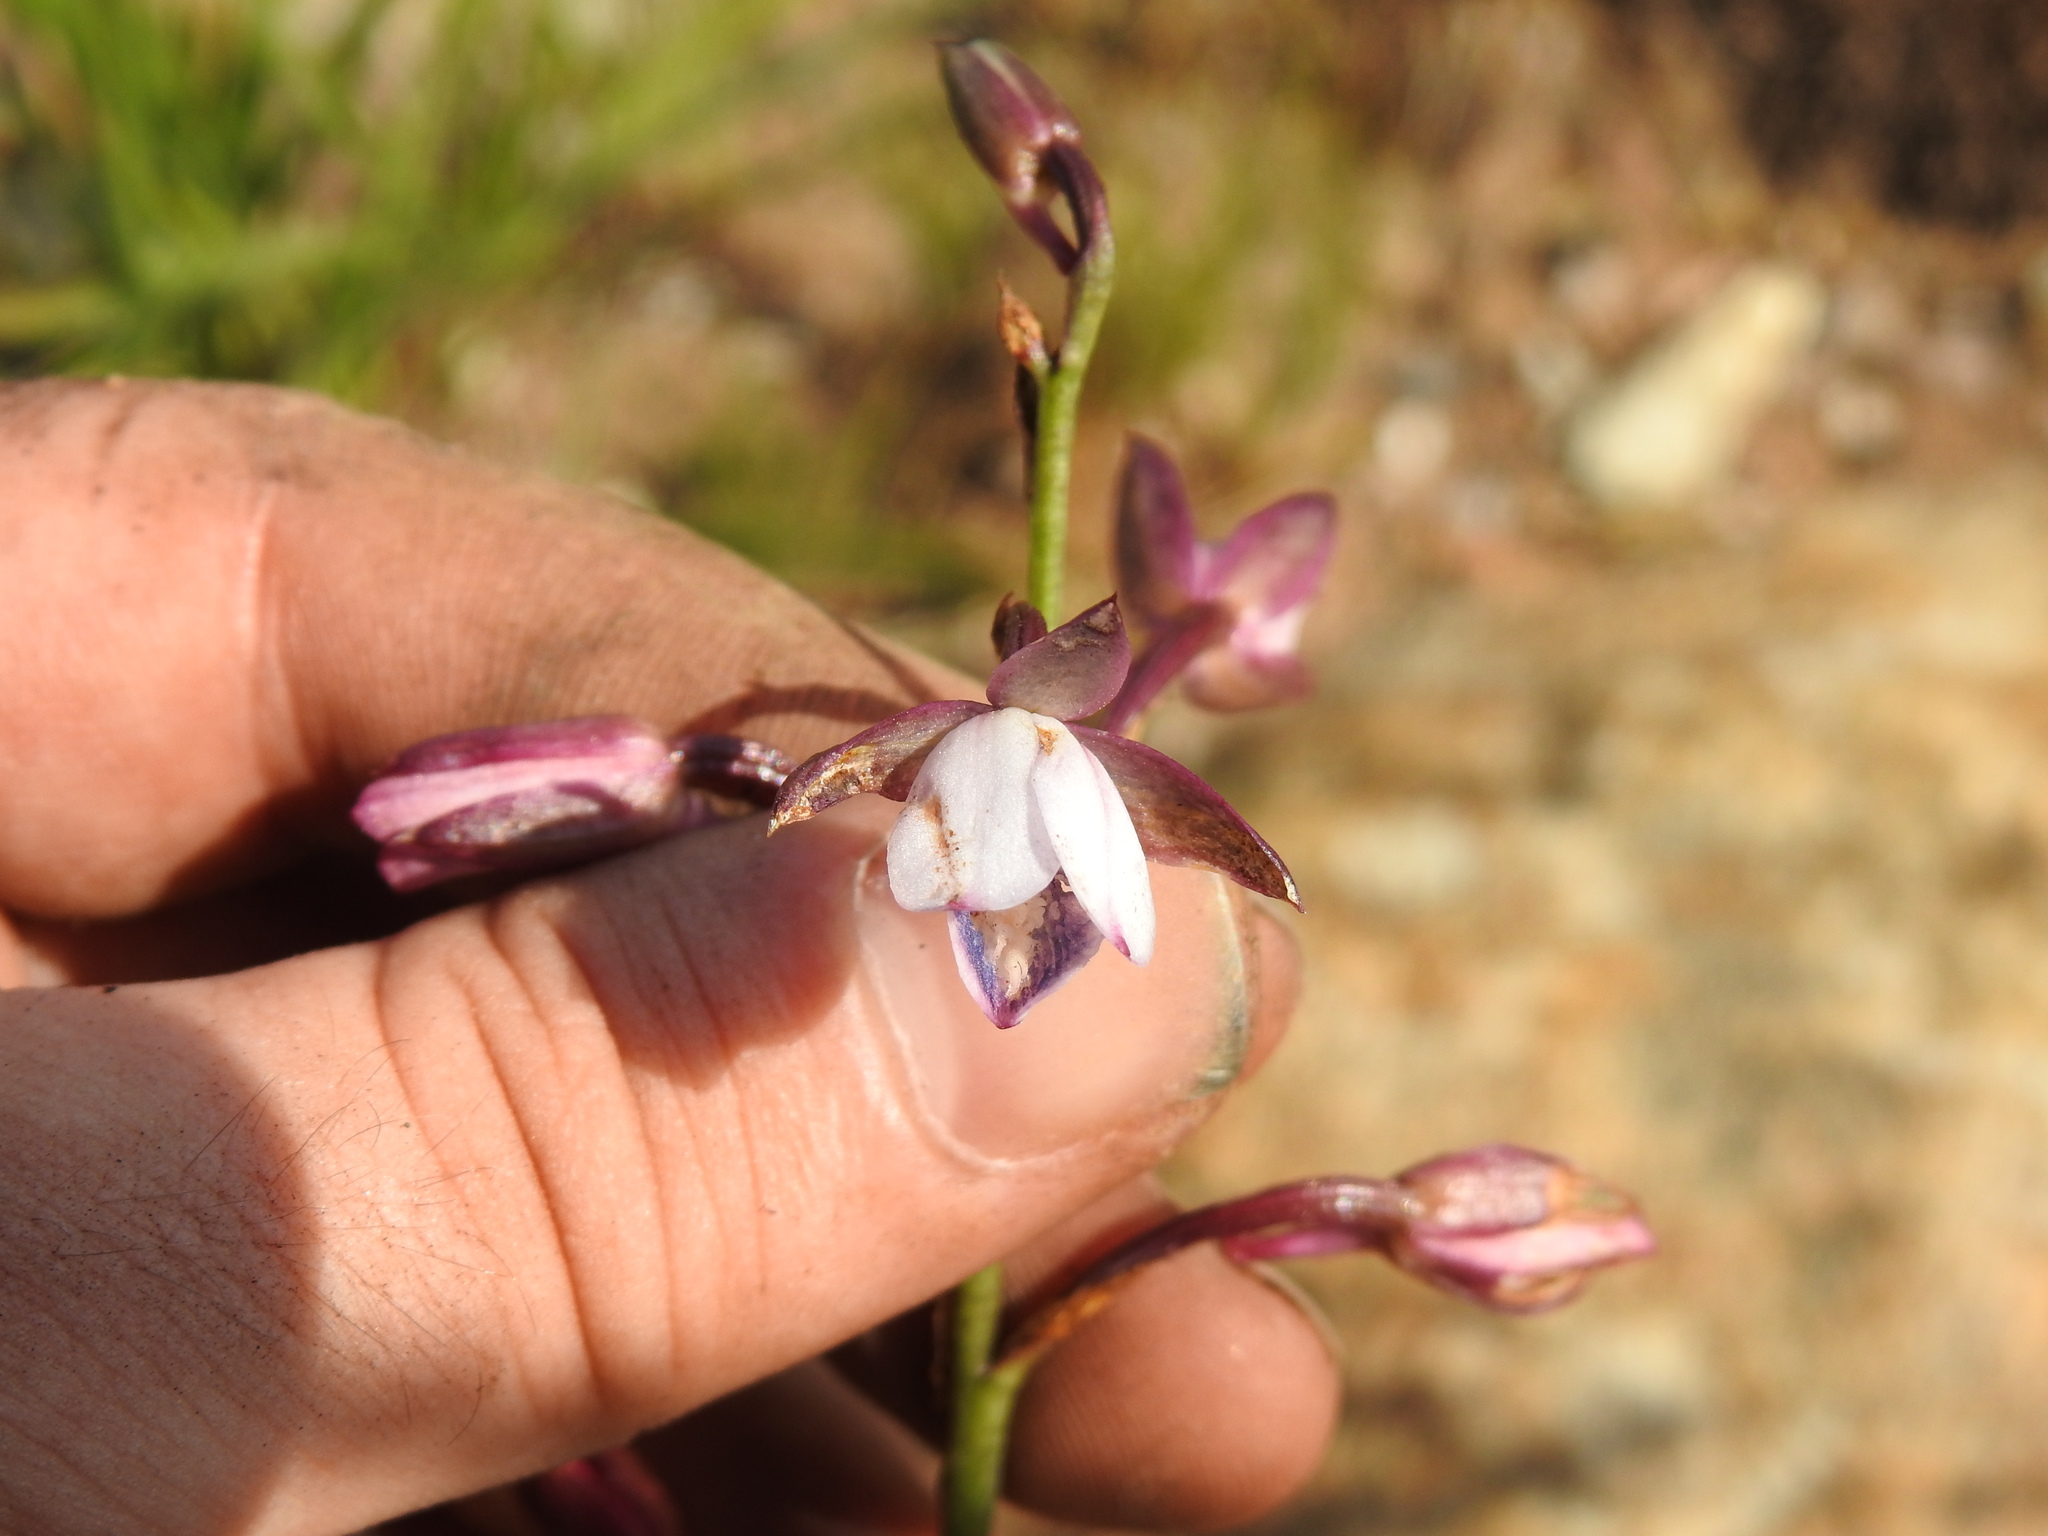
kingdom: Plantae
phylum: Tracheophyta
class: Liliopsida
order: Asparagales
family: Orchidaceae
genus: Eulophia
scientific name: Eulophia hians
